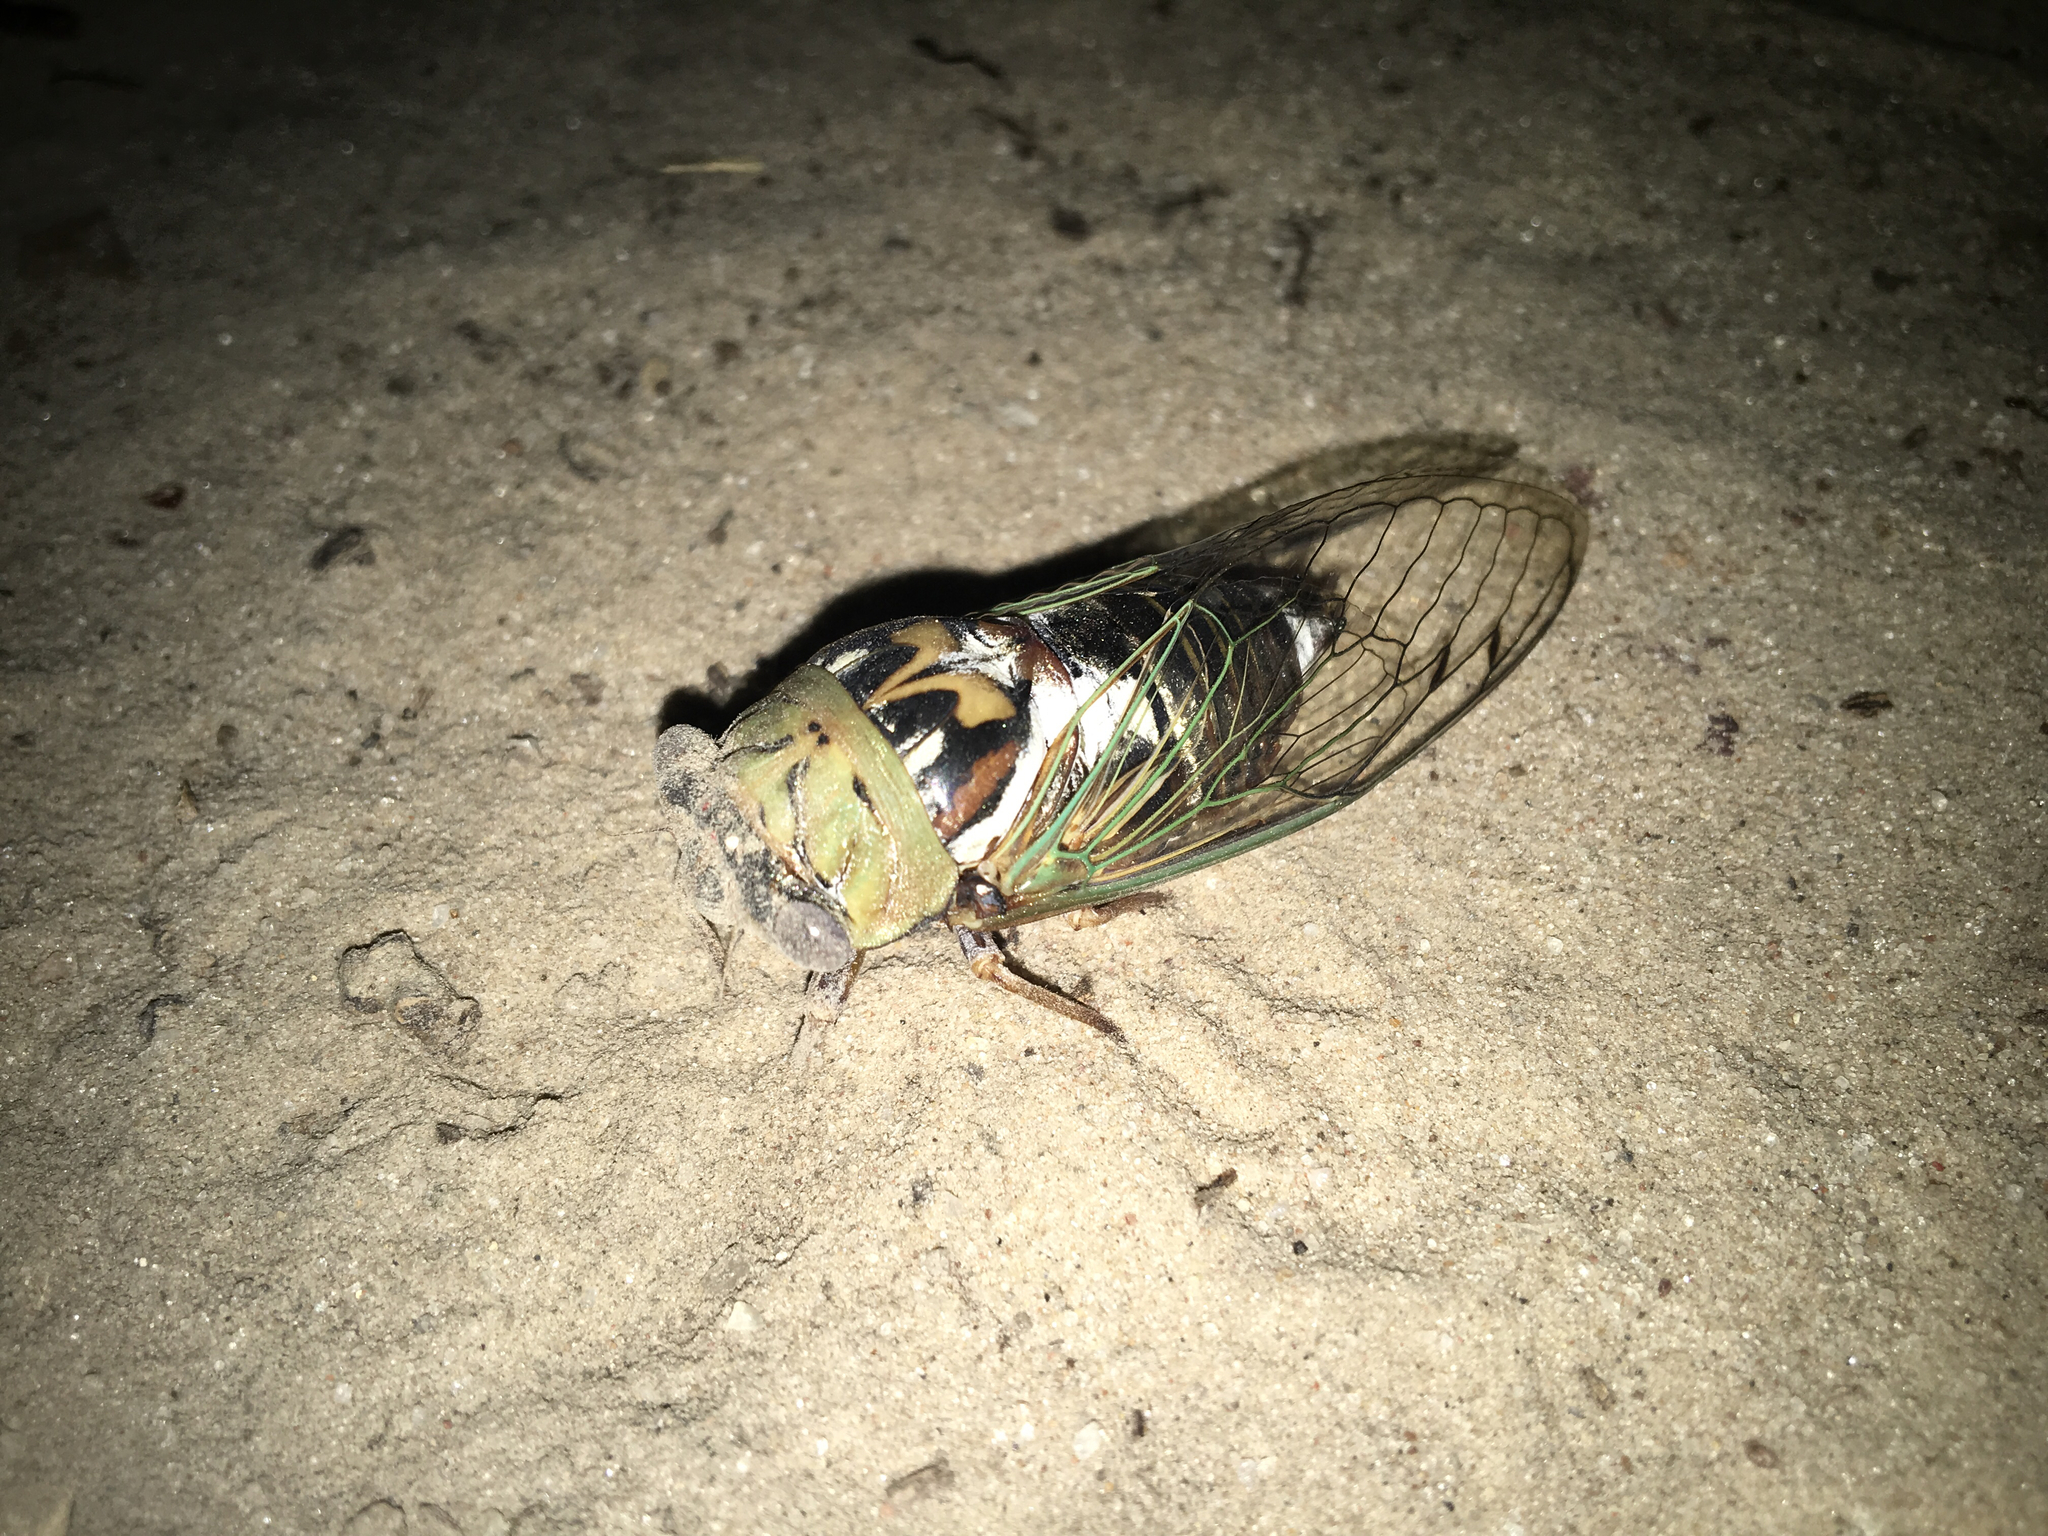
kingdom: Animalia
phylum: Arthropoda
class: Insecta
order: Hemiptera
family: Cicadidae
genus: Megatibicen
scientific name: Megatibicen resh
